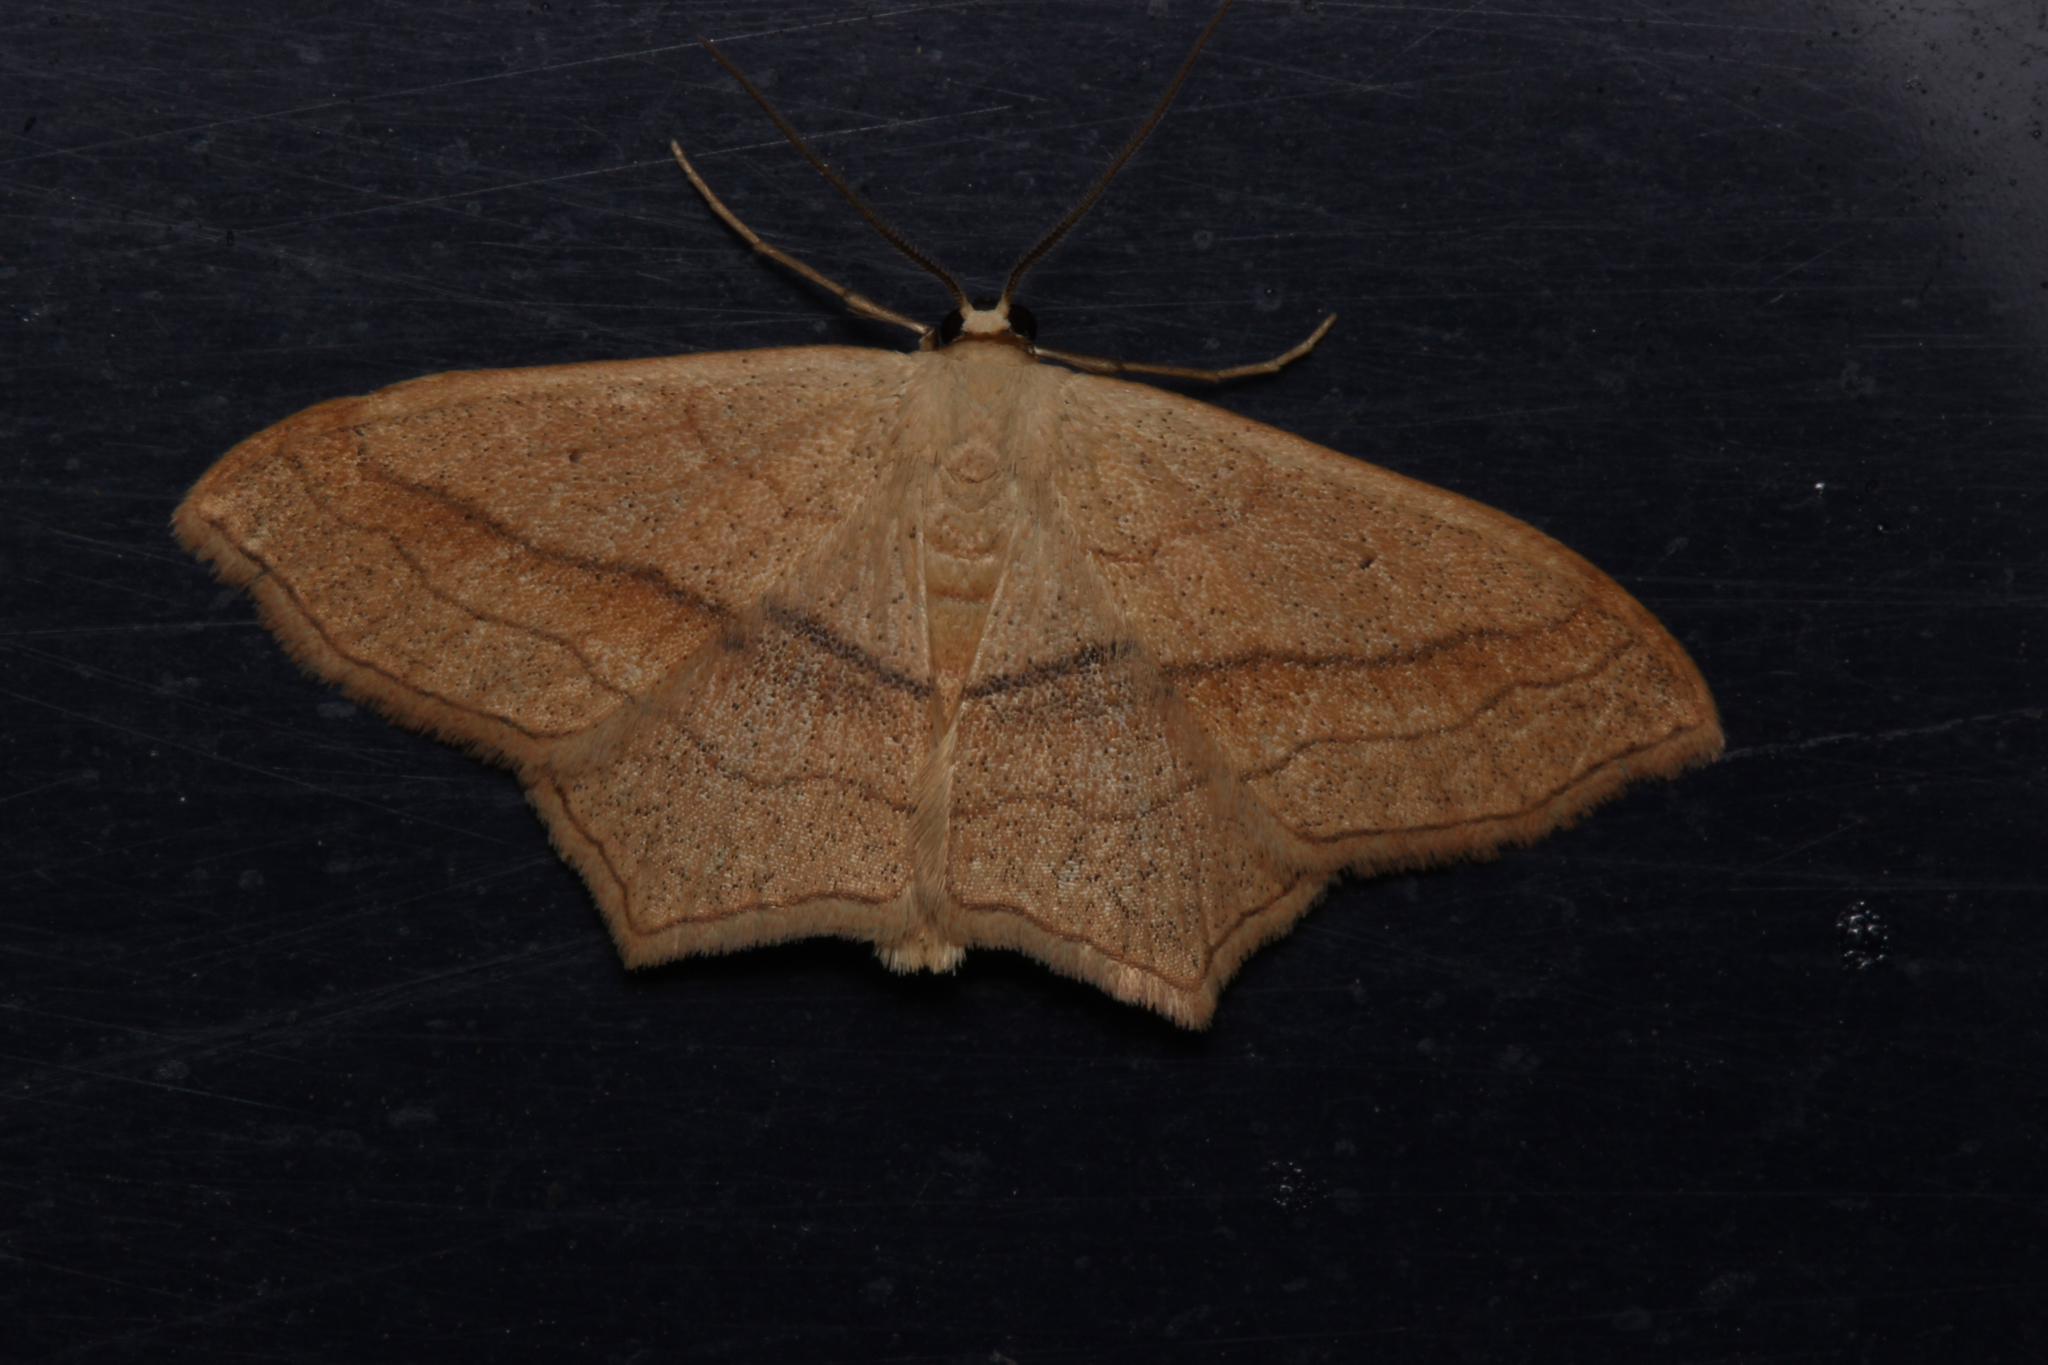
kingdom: Animalia
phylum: Arthropoda
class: Insecta
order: Lepidoptera
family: Geometridae
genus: Scopula
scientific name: Scopula imitaria
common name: Small blood-vein
